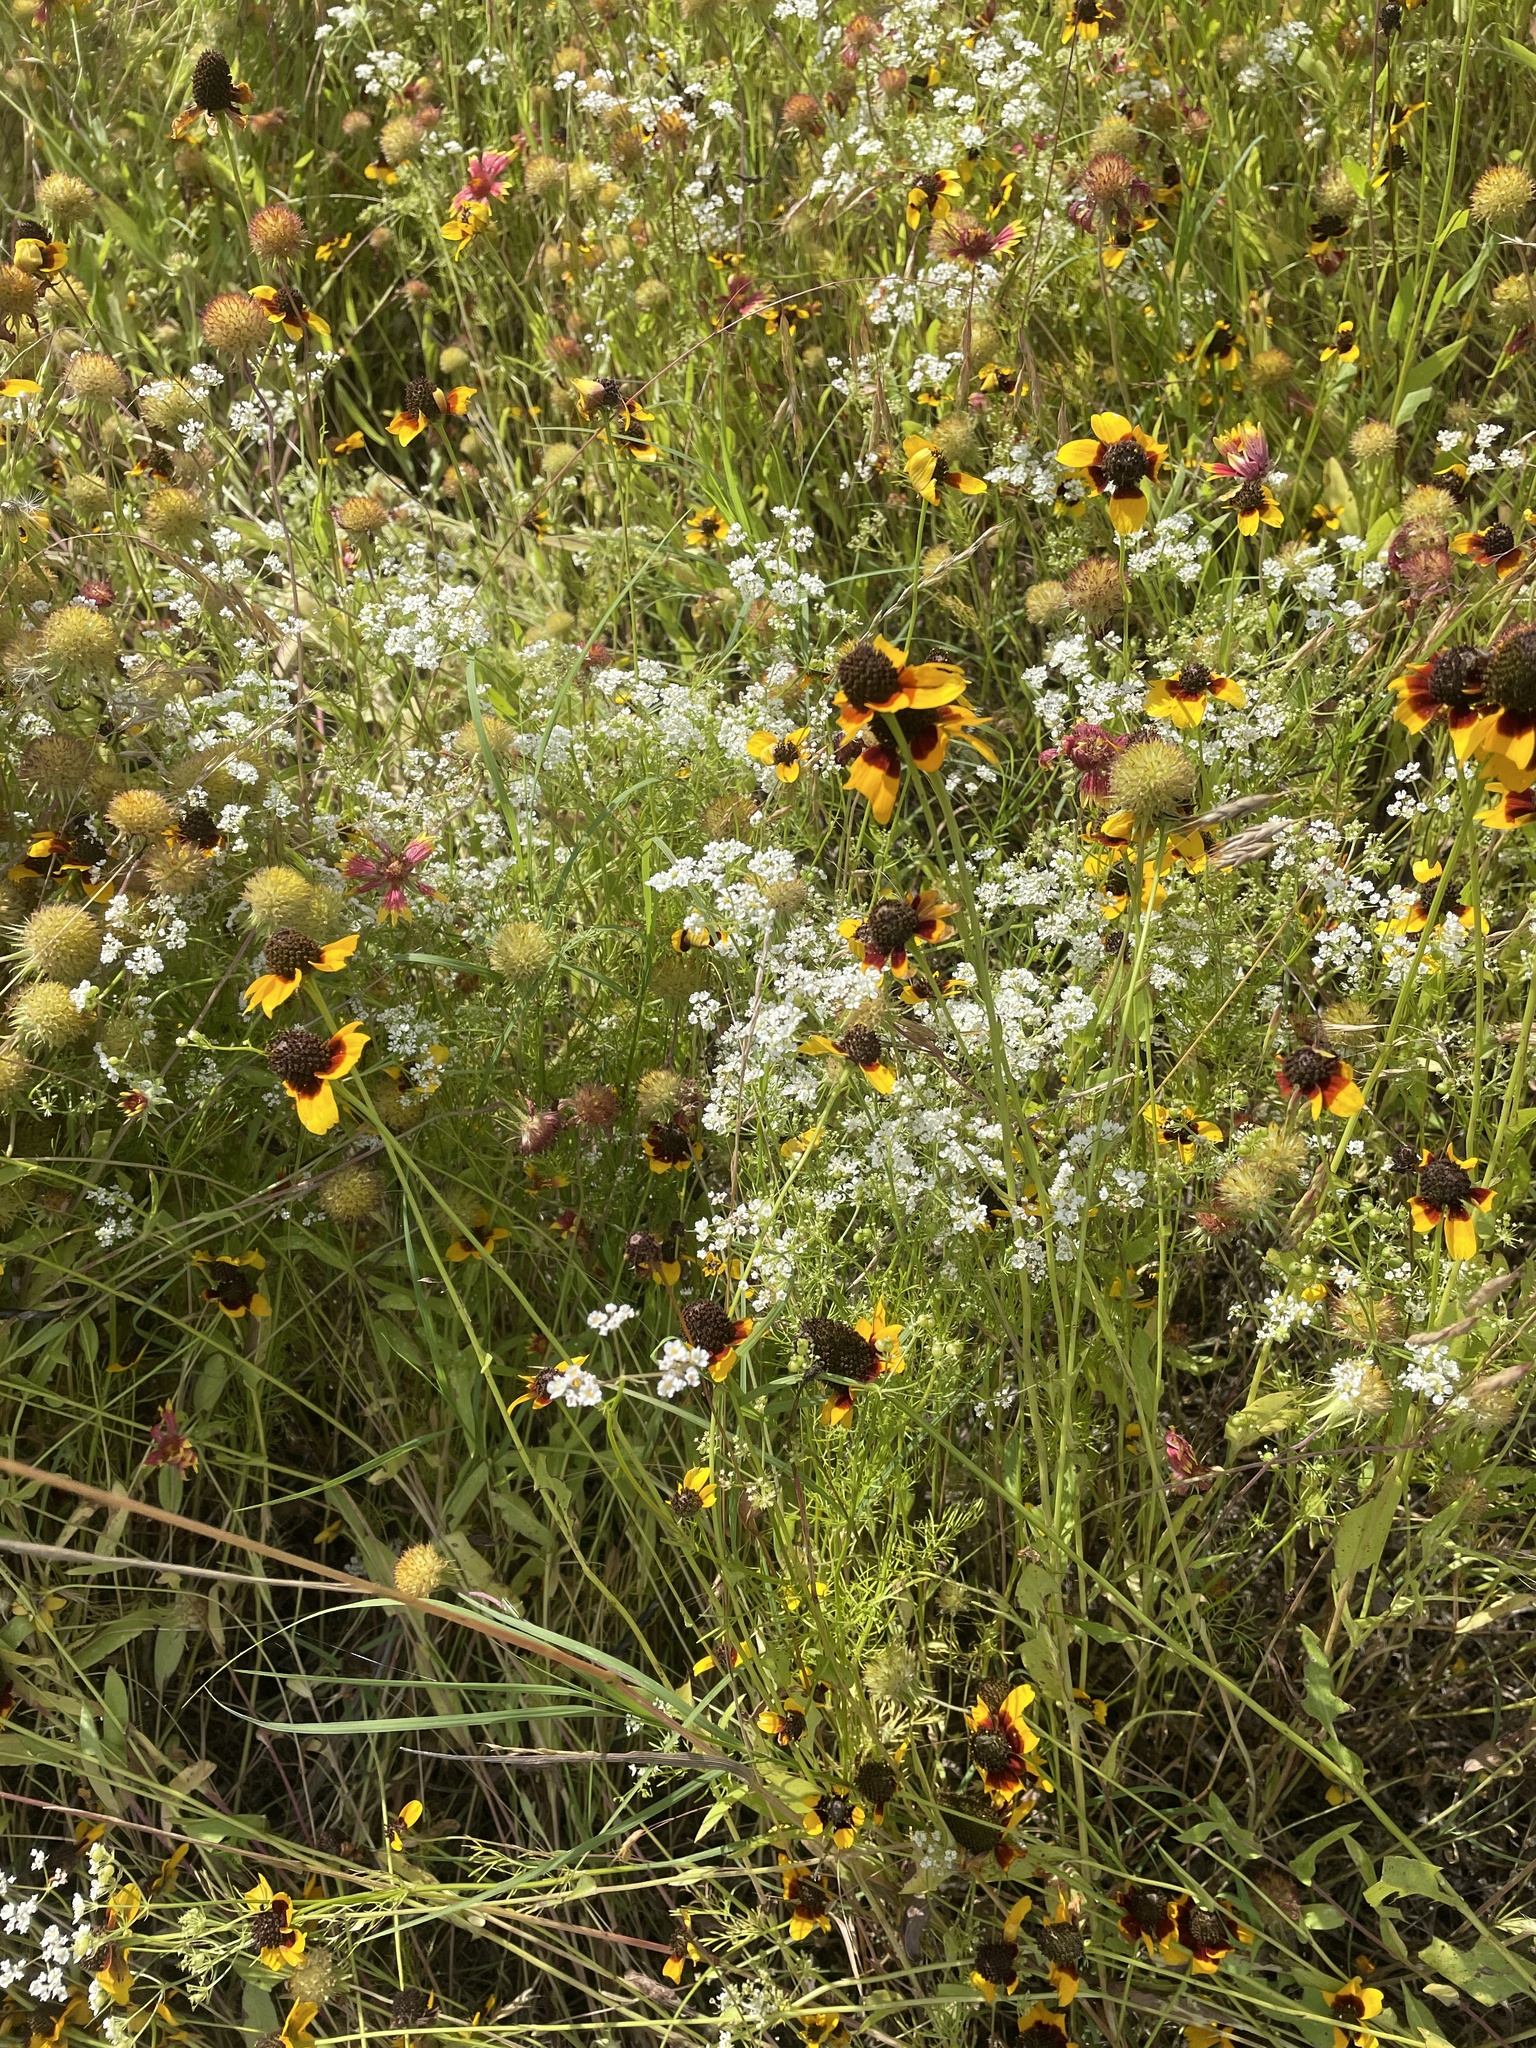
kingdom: Plantae
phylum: Tracheophyta
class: Magnoliopsida
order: Apiales
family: Apiaceae
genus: Atrema
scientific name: Atrema americanum
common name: Prairie-bishop
